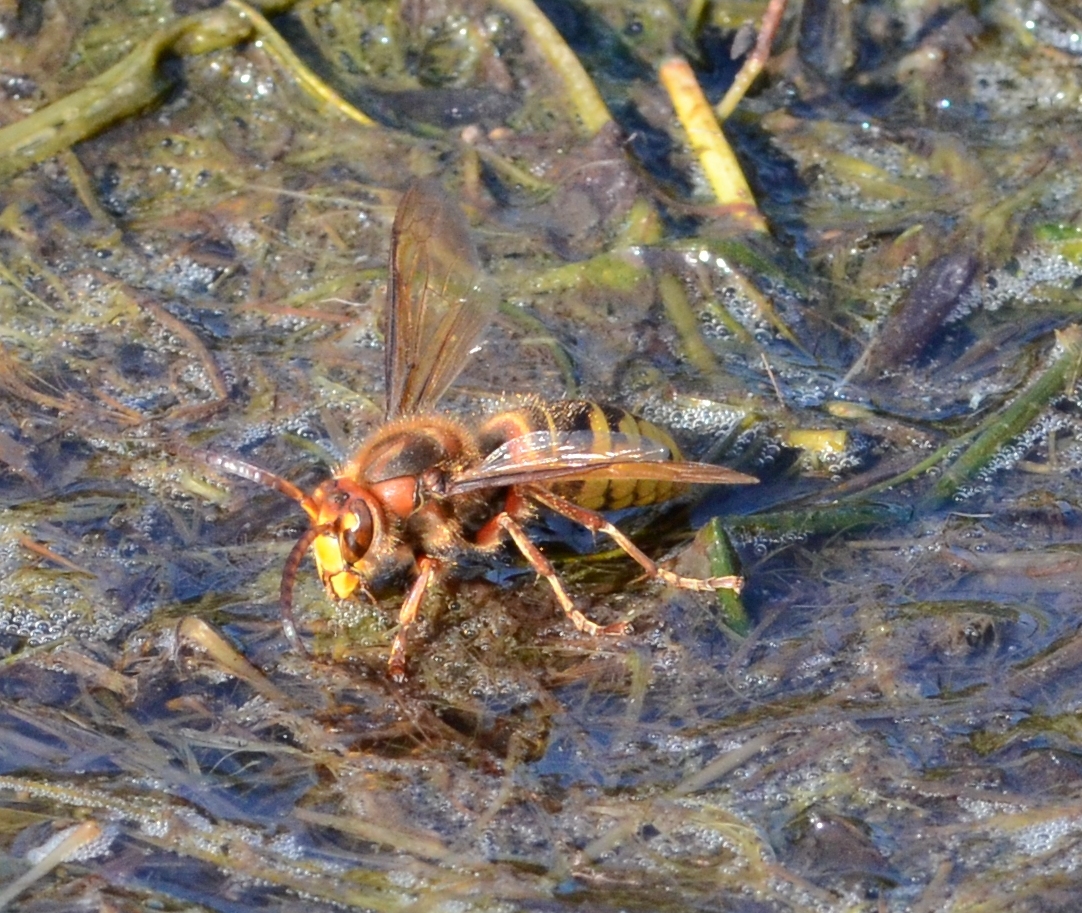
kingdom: Animalia
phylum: Arthropoda
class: Insecta
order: Hymenoptera
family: Vespidae
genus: Vespa
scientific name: Vespa crabro
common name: Hornet
